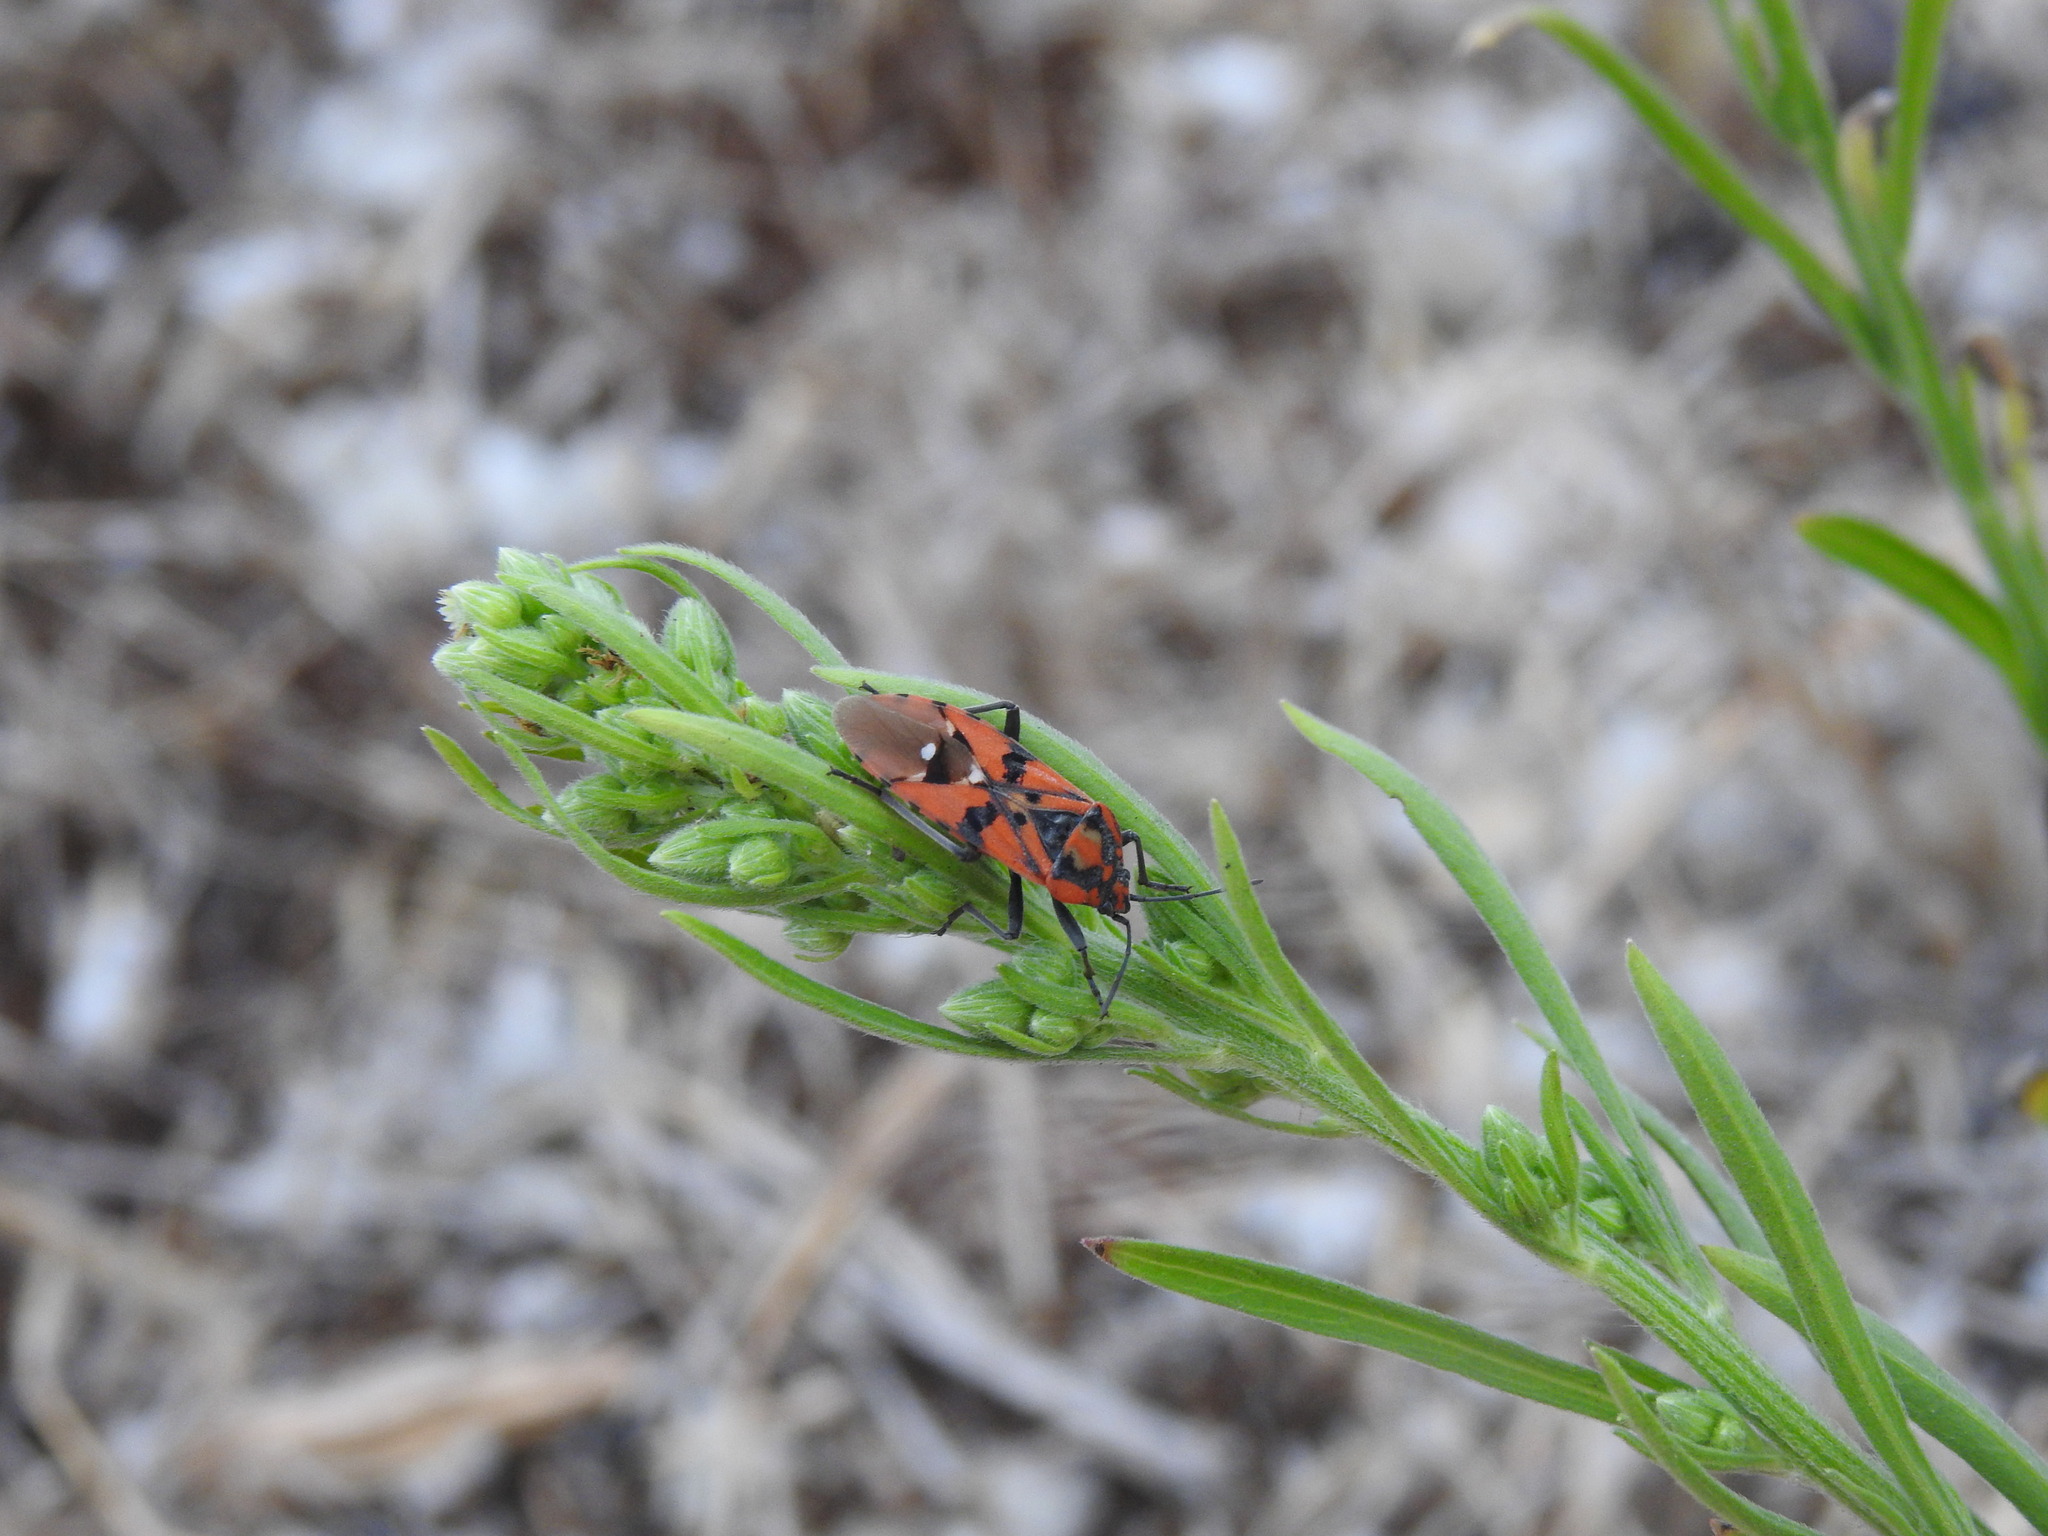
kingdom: Animalia
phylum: Arthropoda
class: Insecta
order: Hemiptera
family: Lygaeidae
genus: Spilostethus
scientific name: Spilostethus pandurus
